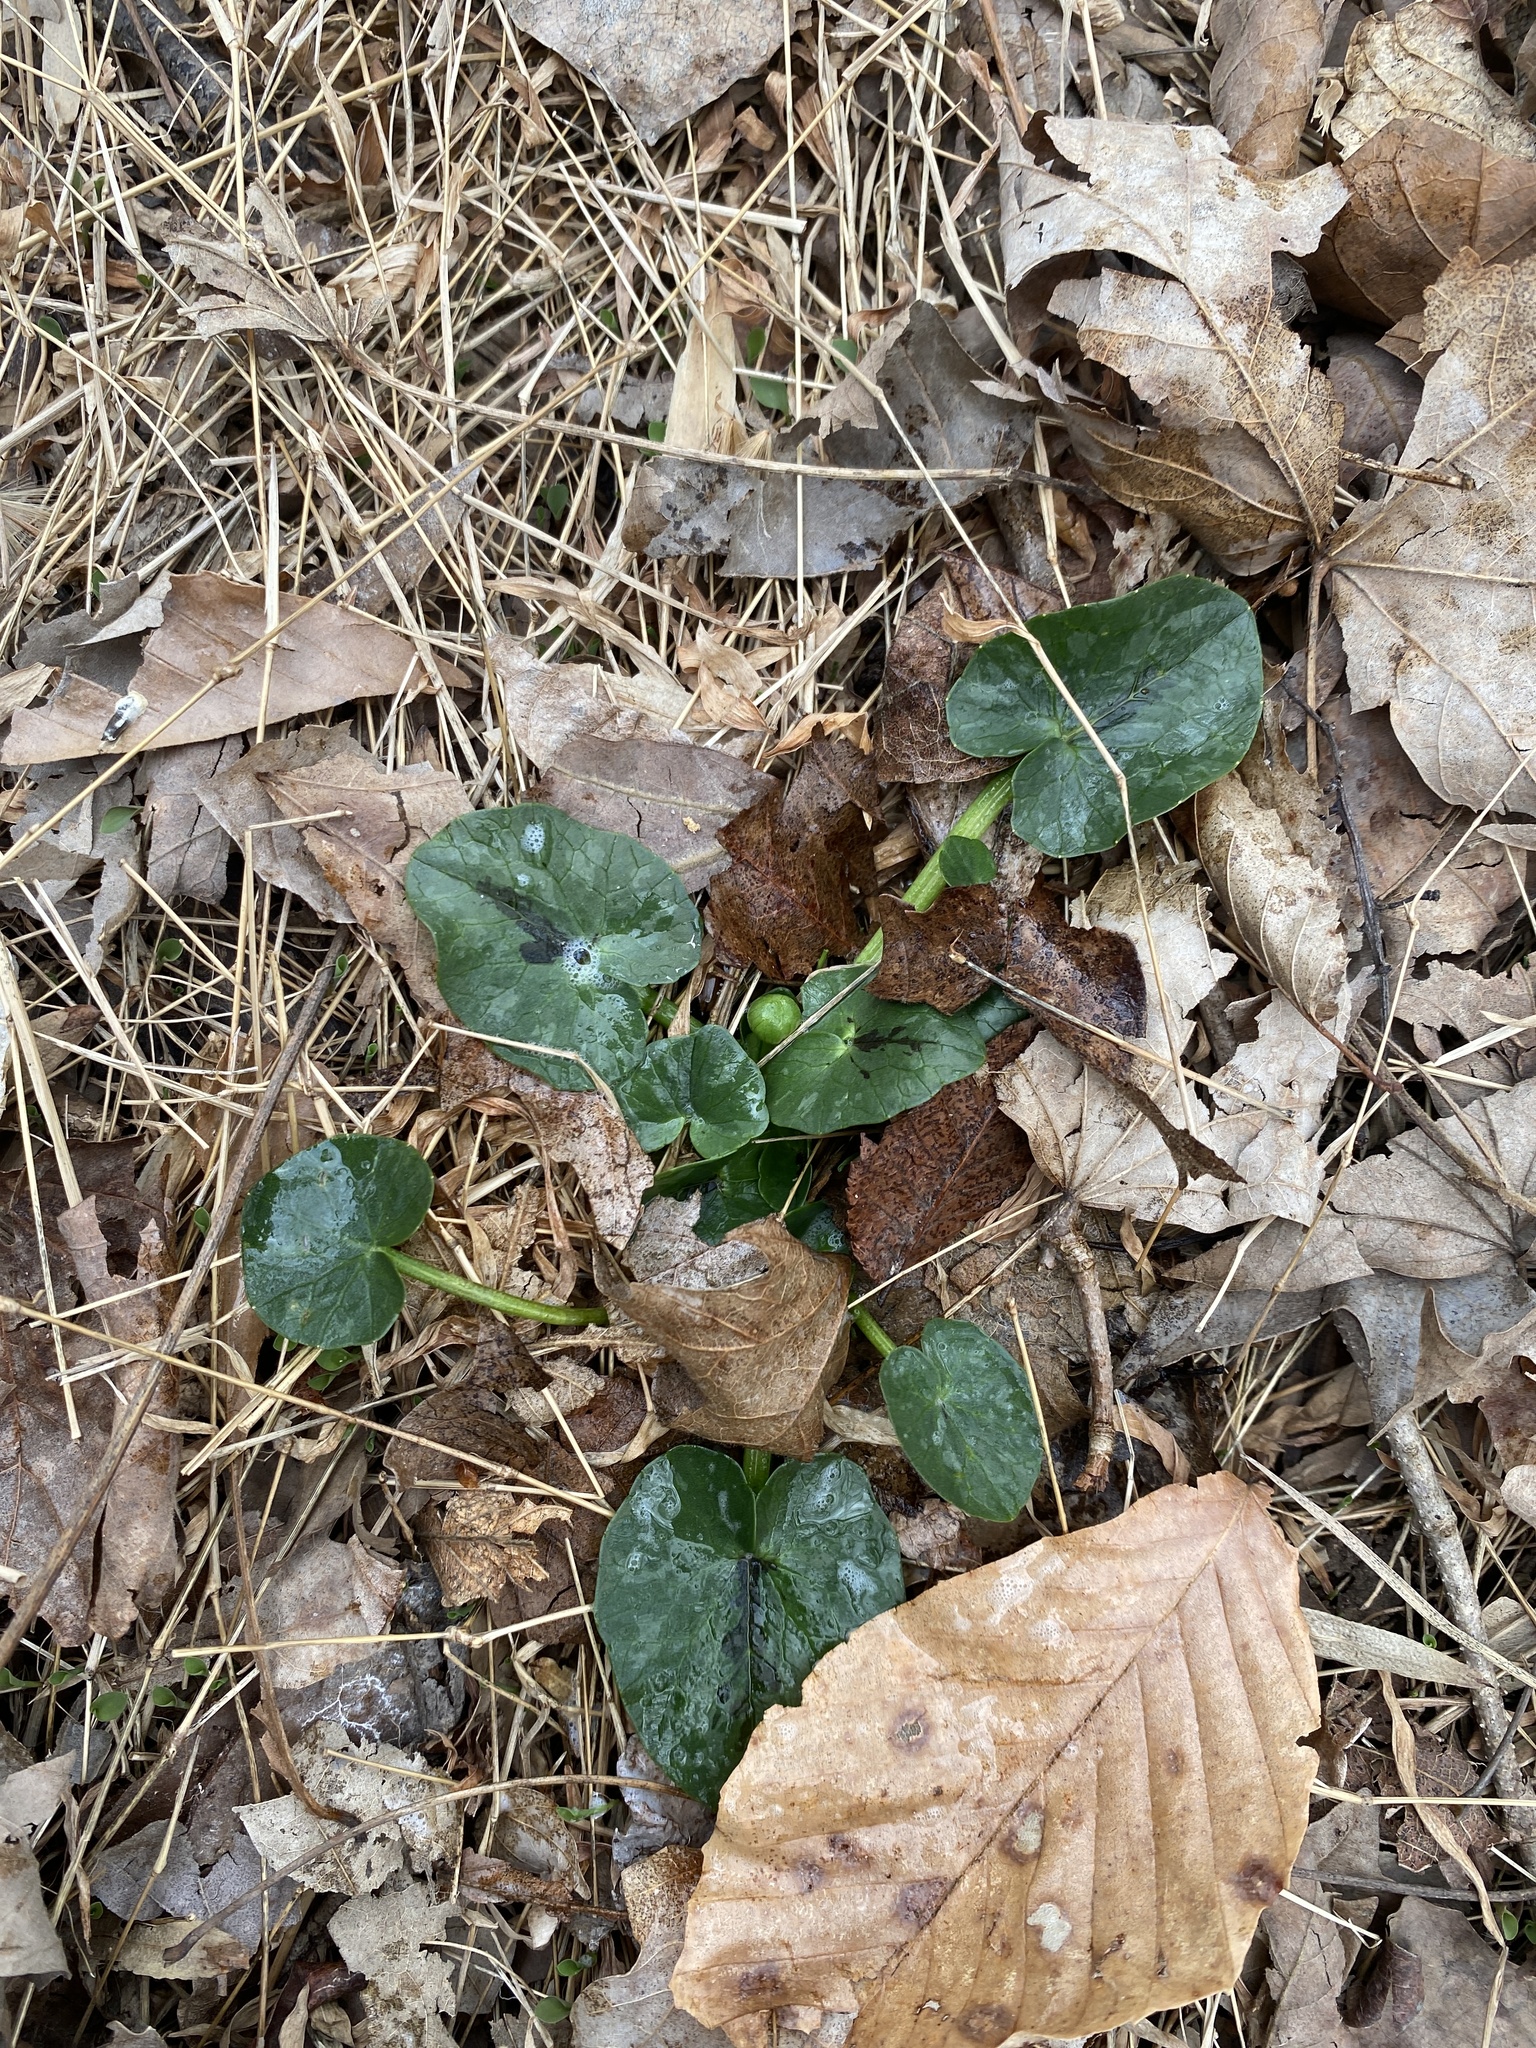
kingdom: Plantae
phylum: Tracheophyta
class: Magnoliopsida
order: Ranunculales
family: Ranunculaceae
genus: Ficaria
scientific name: Ficaria verna
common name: Lesser celandine
